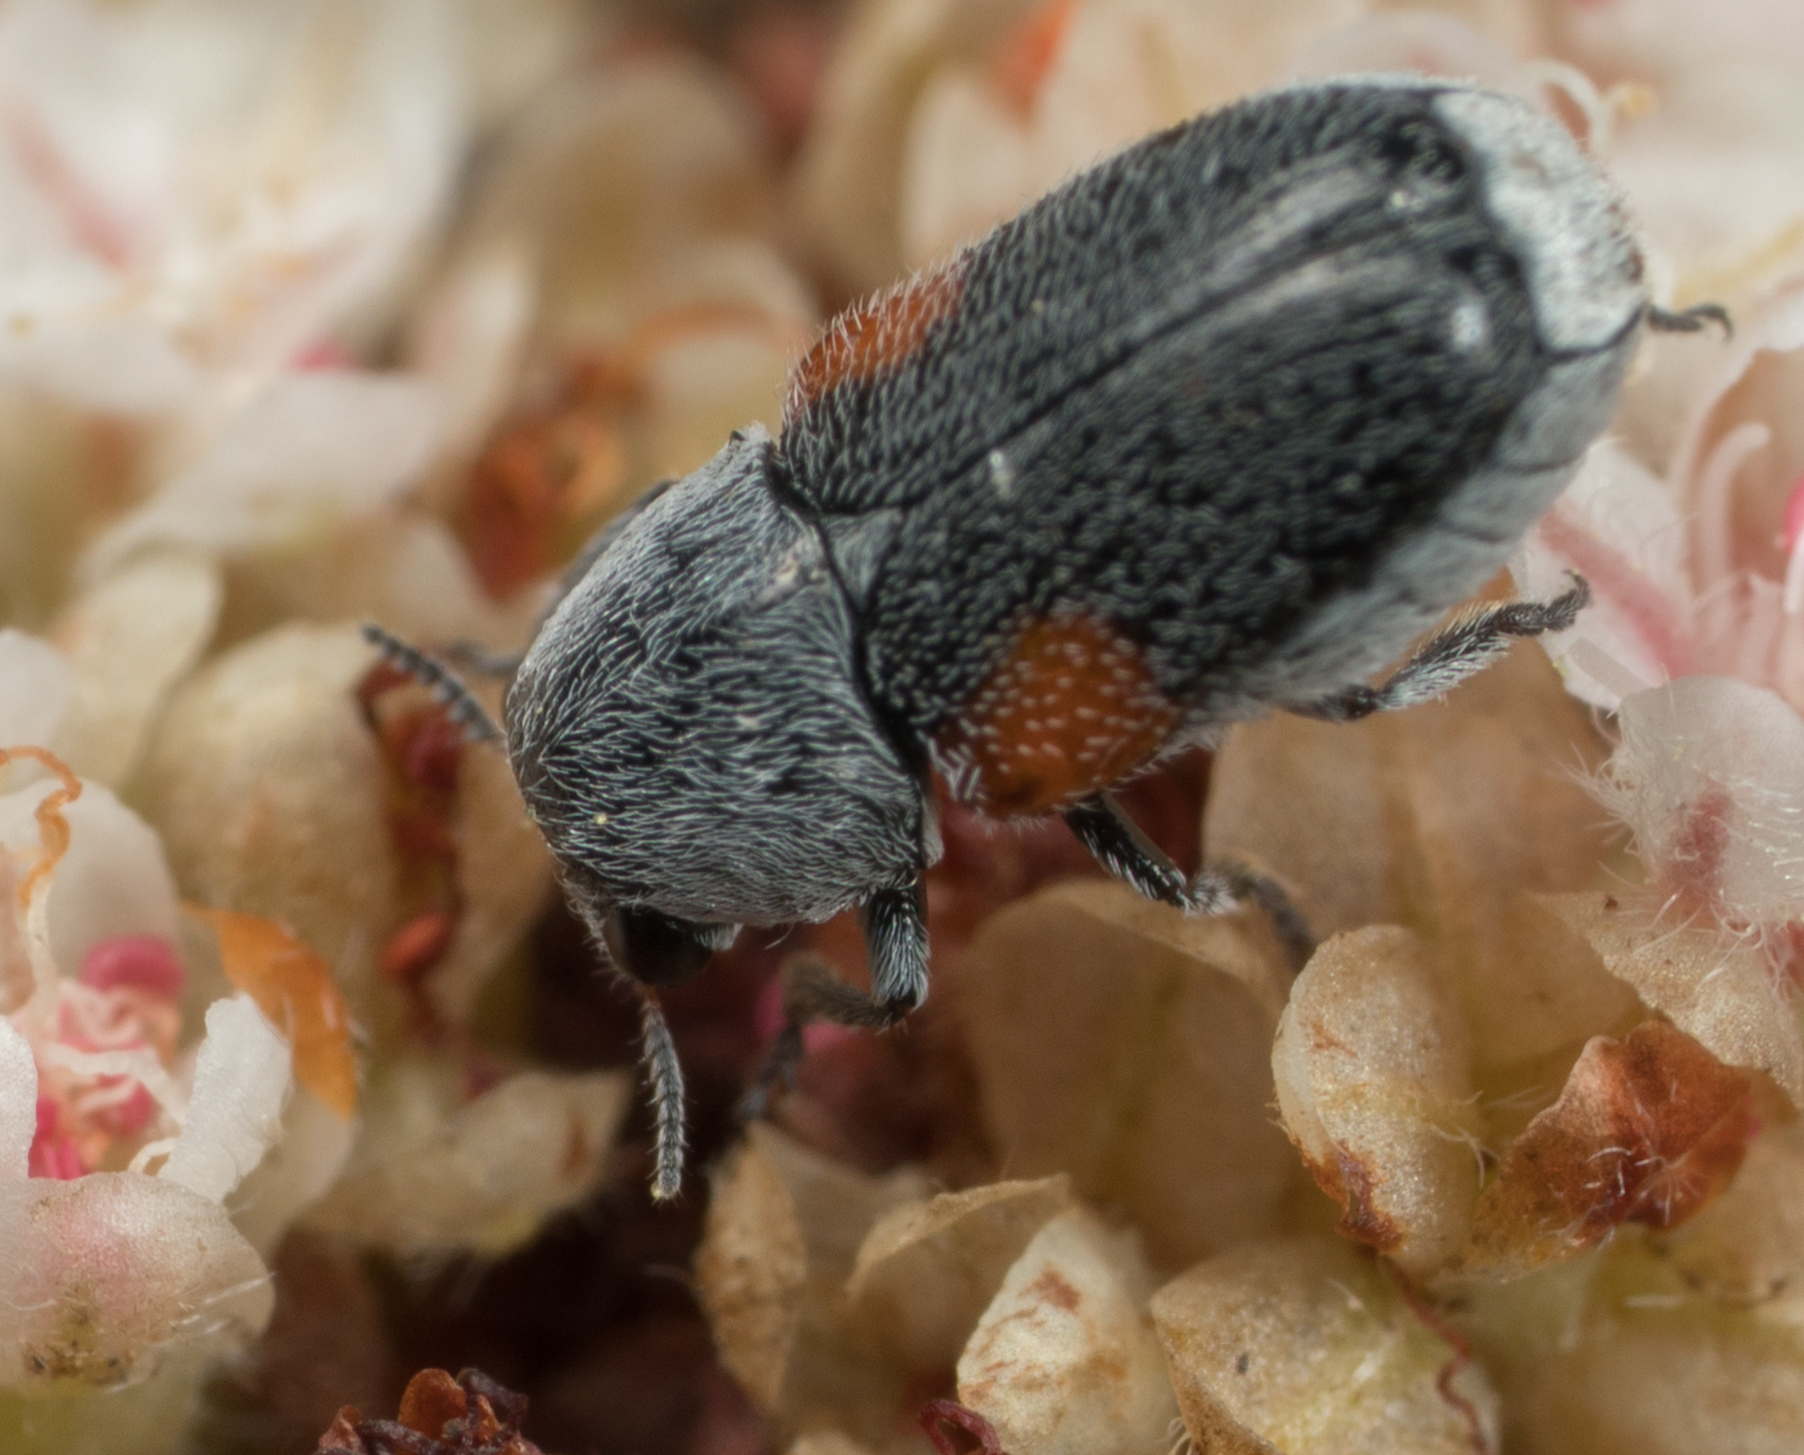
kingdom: Animalia
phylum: Arthropoda
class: Insecta
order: Coleoptera
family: Chrysomelidae
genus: Coleothorpa
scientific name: Coleothorpa axillaris
